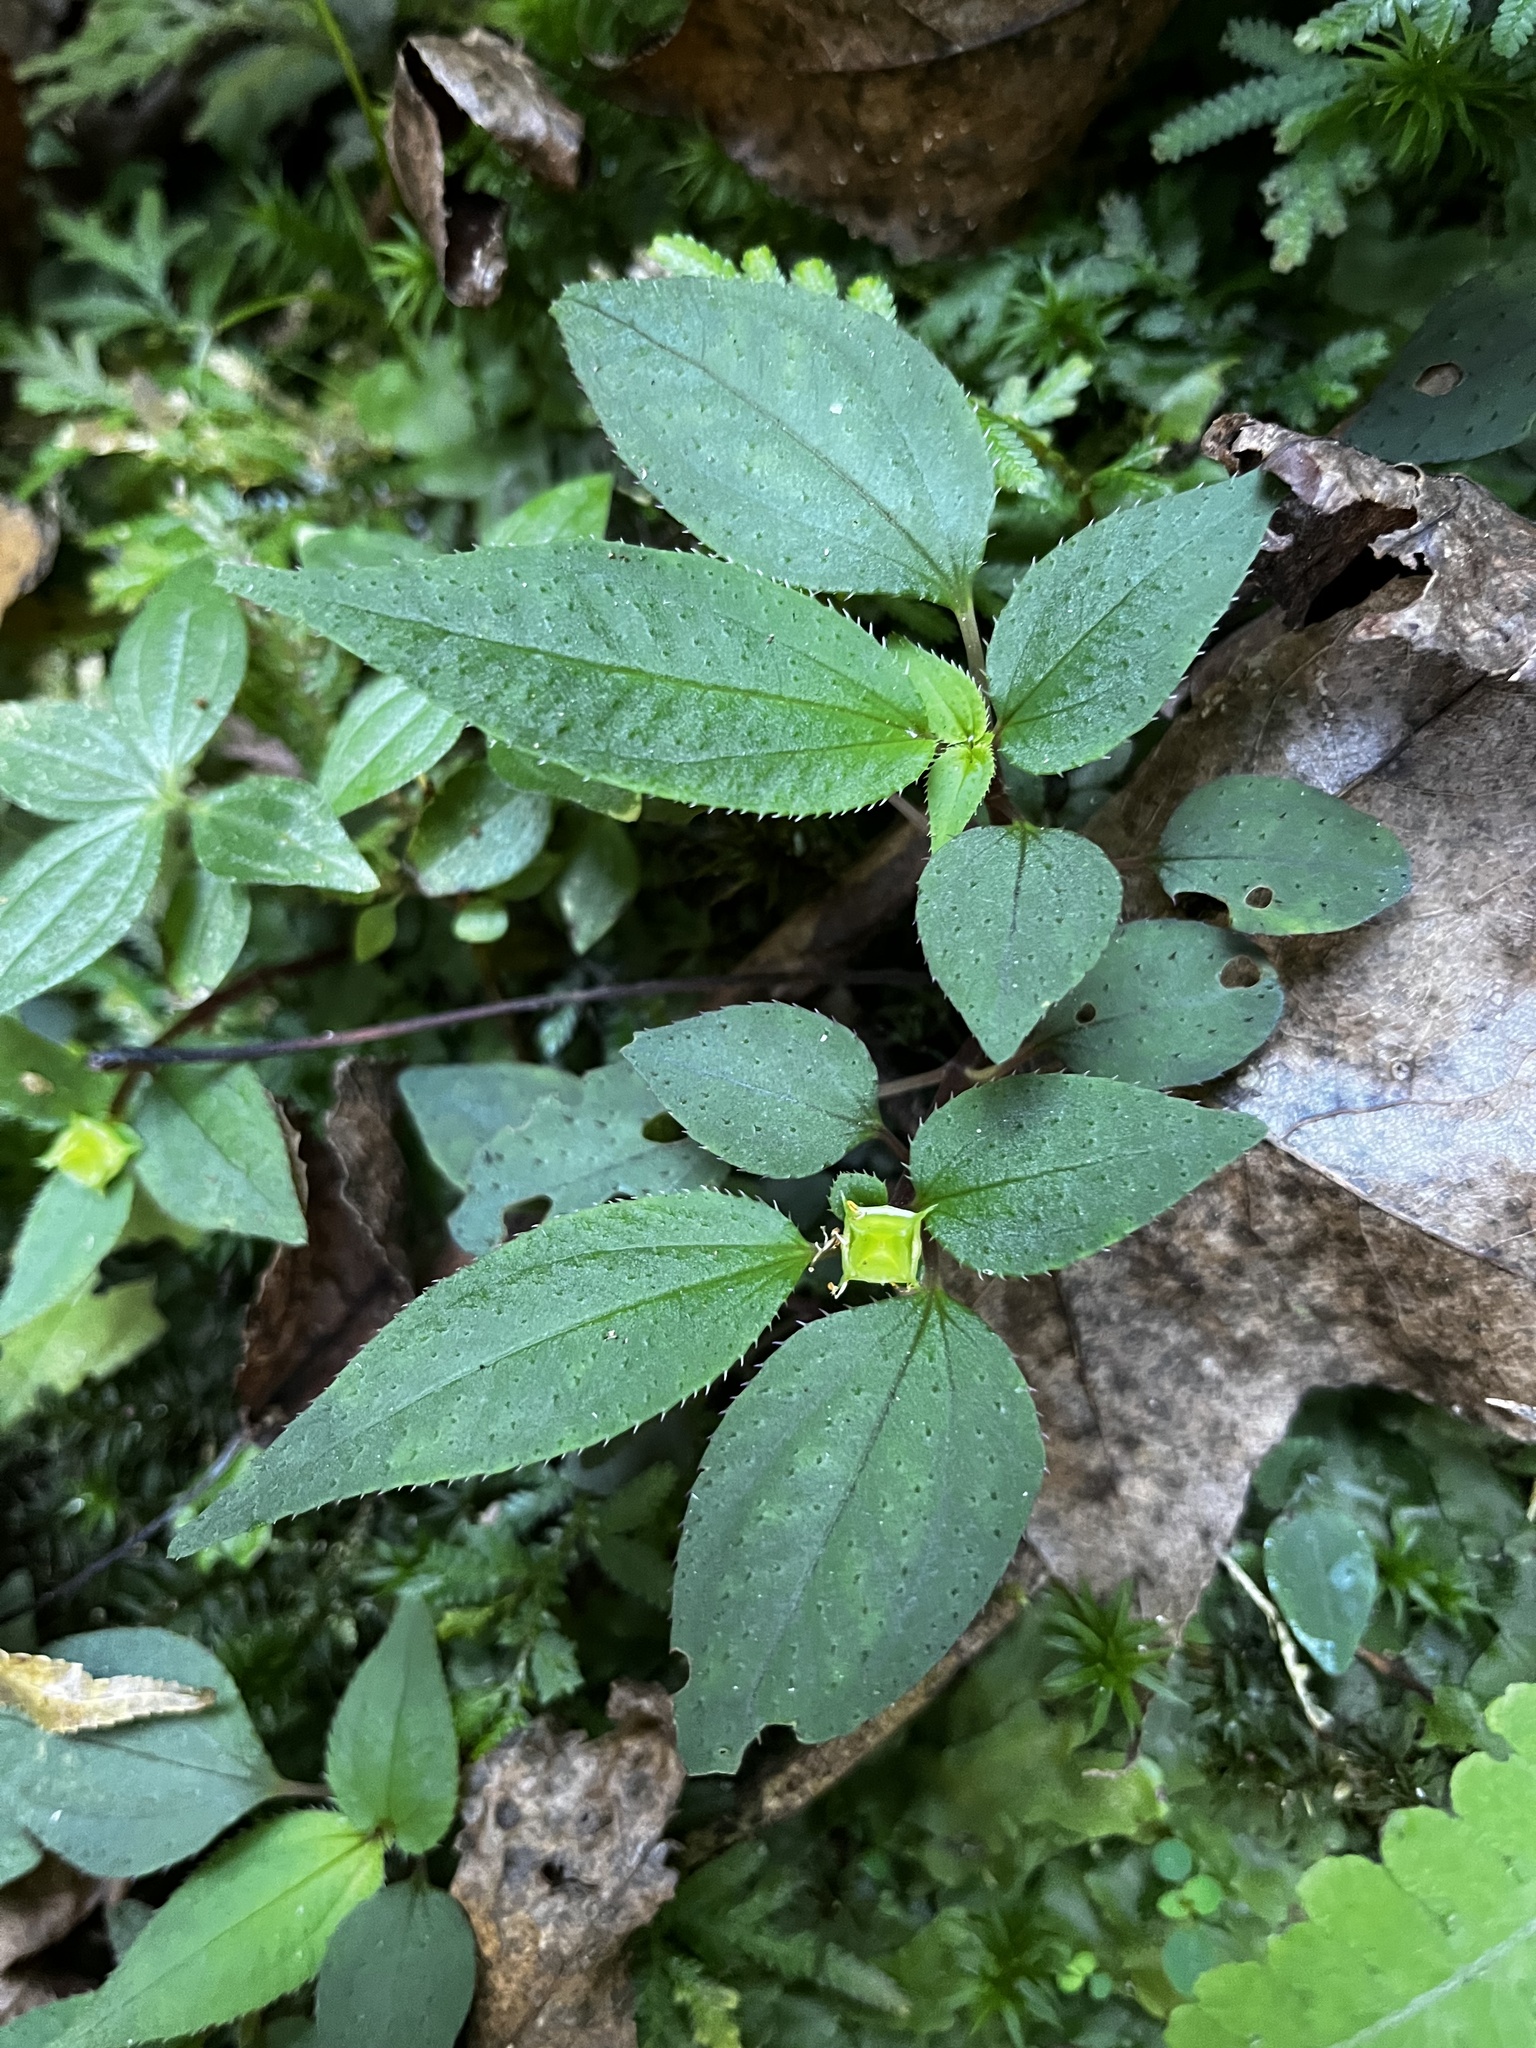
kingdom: Plantae
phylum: Tracheophyta
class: Magnoliopsida
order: Myrtales
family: Melastomataceae
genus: Sarcopyramis
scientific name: Sarcopyramis napalensis
